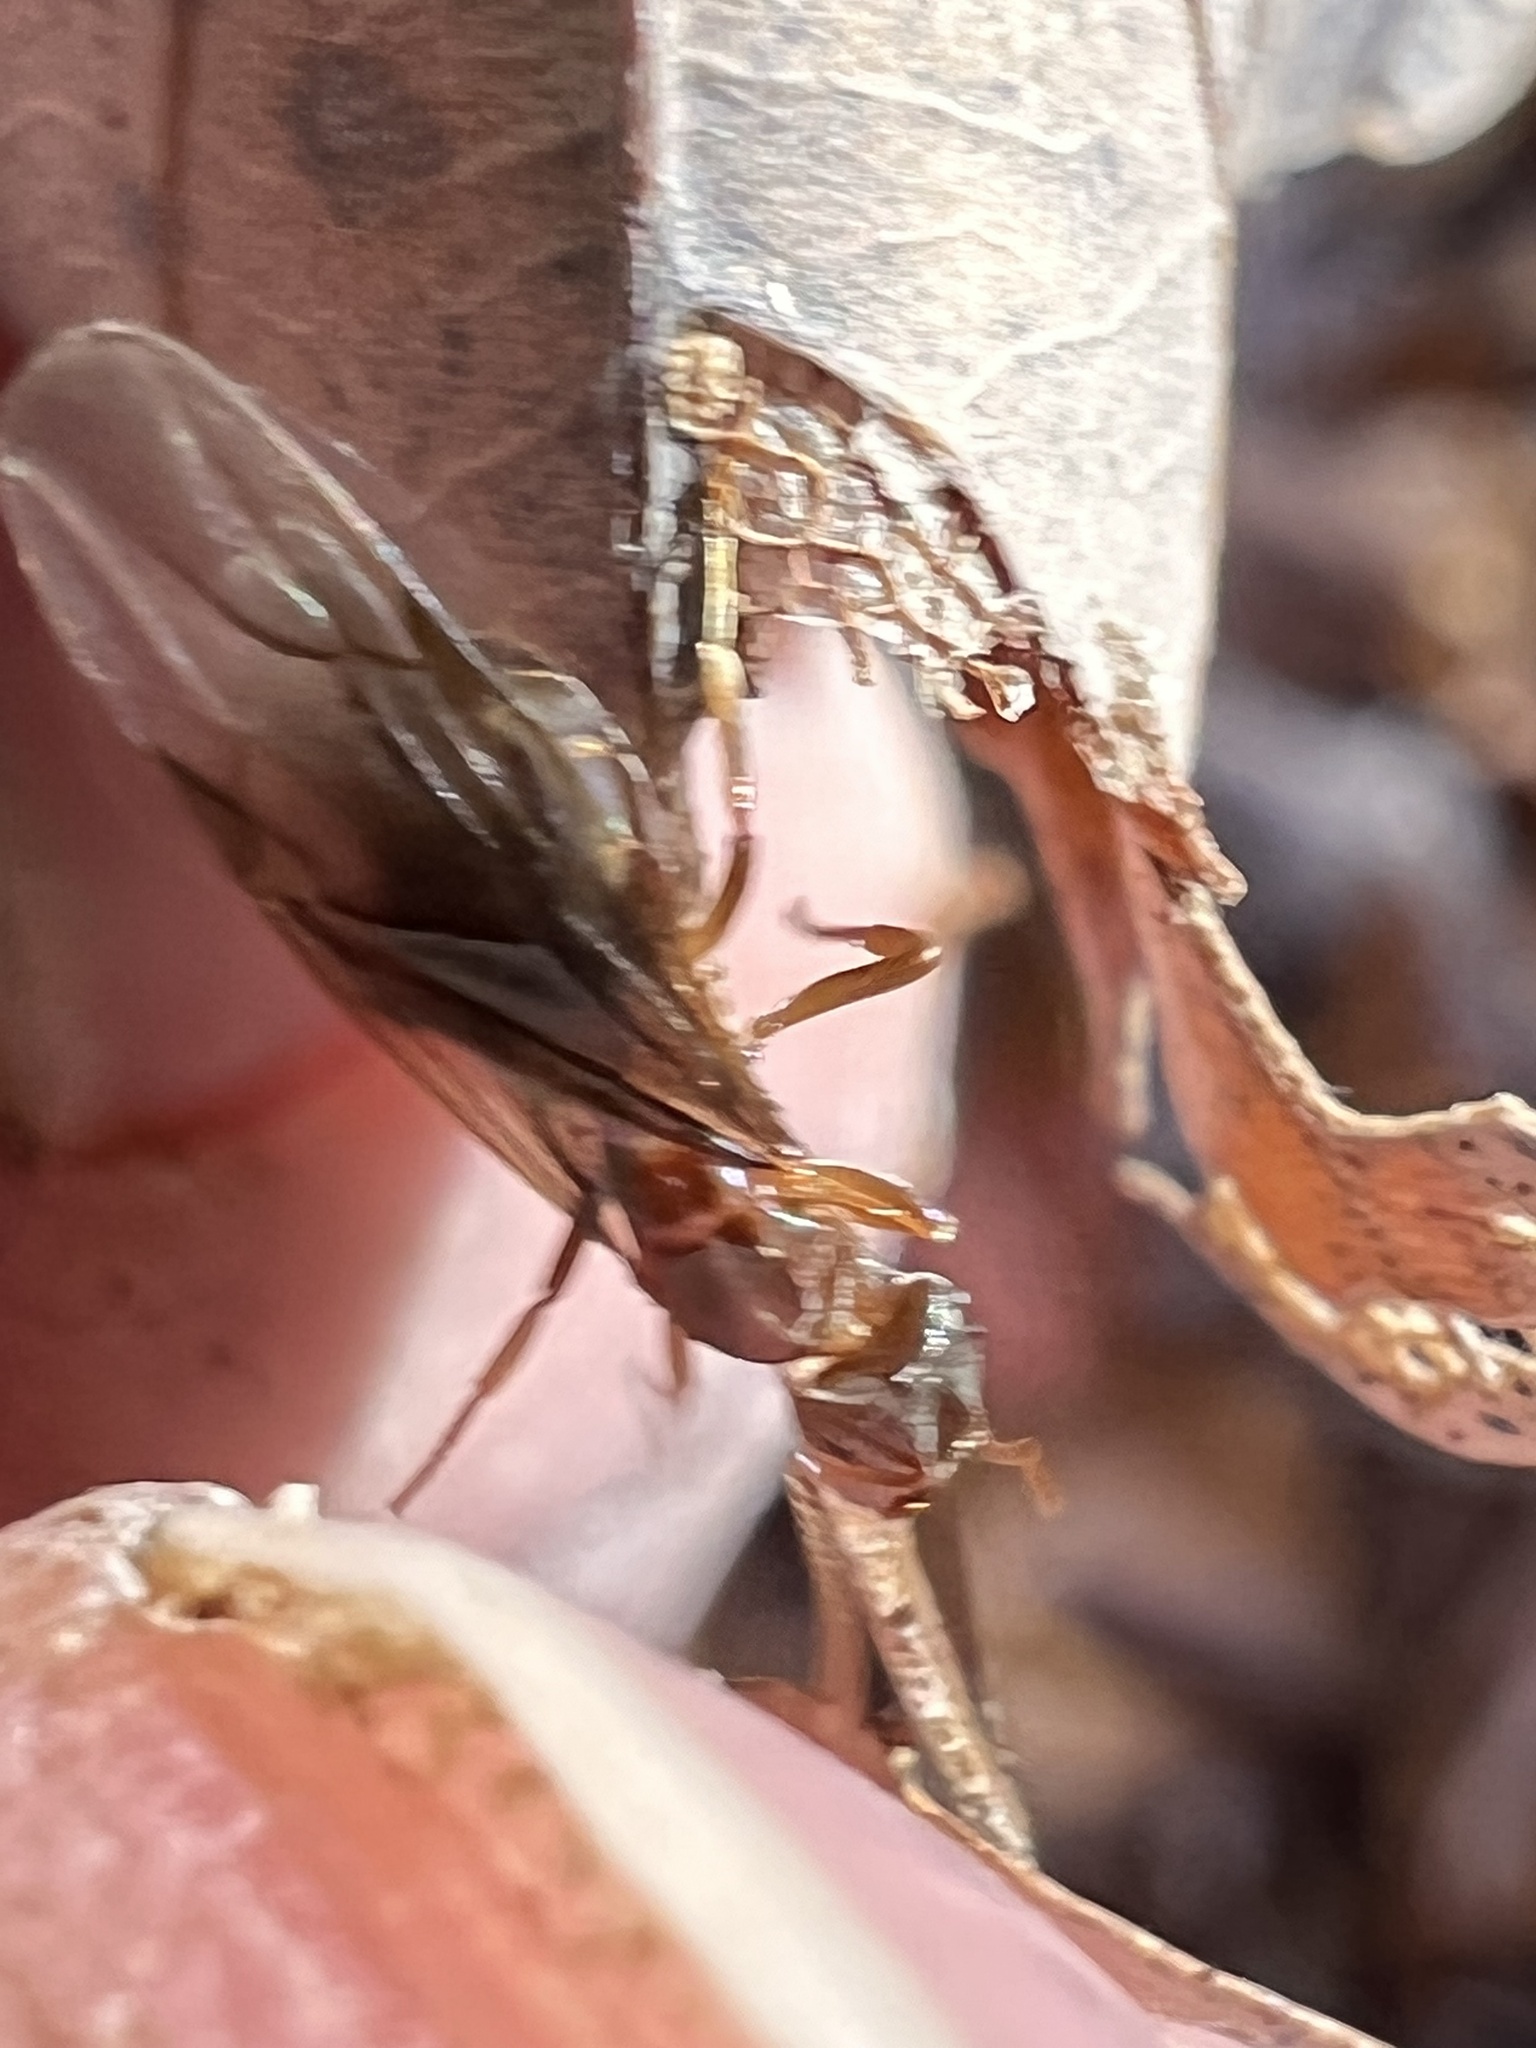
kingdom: Animalia
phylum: Arthropoda
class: Insecta
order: Hymenoptera
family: Formicidae
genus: Lasius
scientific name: Lasius aphidicola
